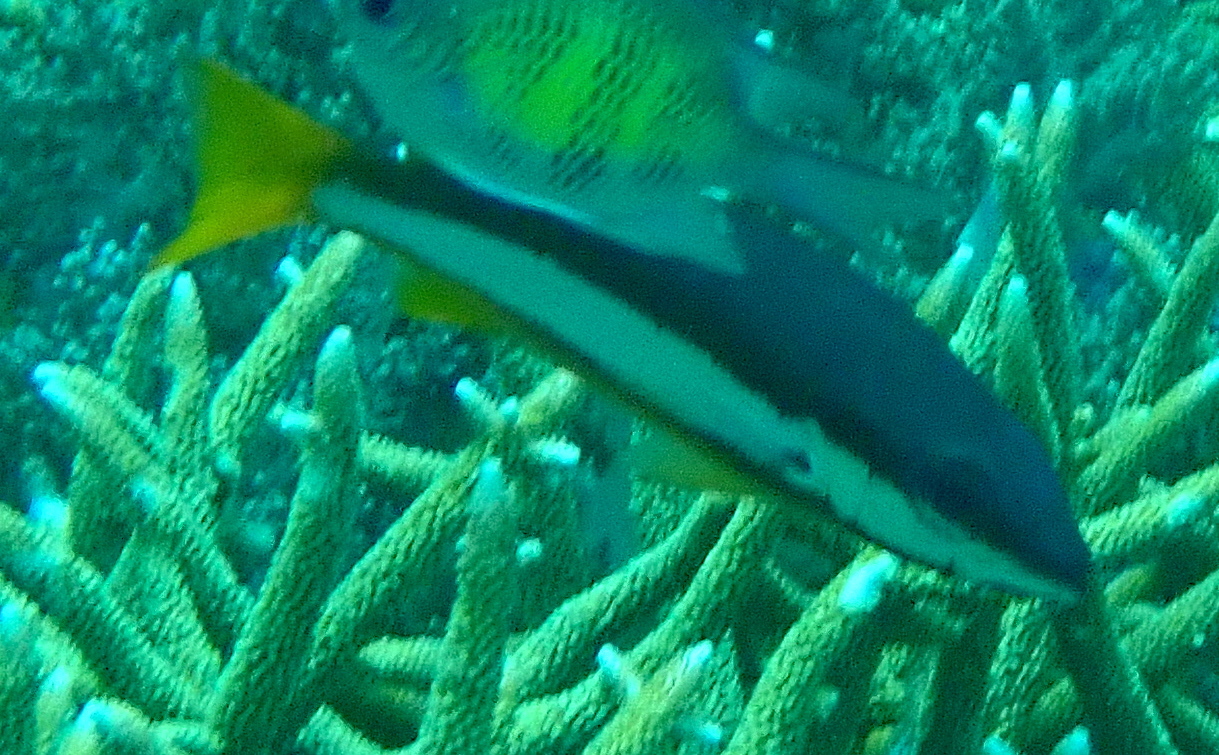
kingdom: Animalia
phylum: Chordata
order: Perciformes
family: Lutjanidae
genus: Lutjanus
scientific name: Lutjanus biguttatus
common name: Two-spot snapper
